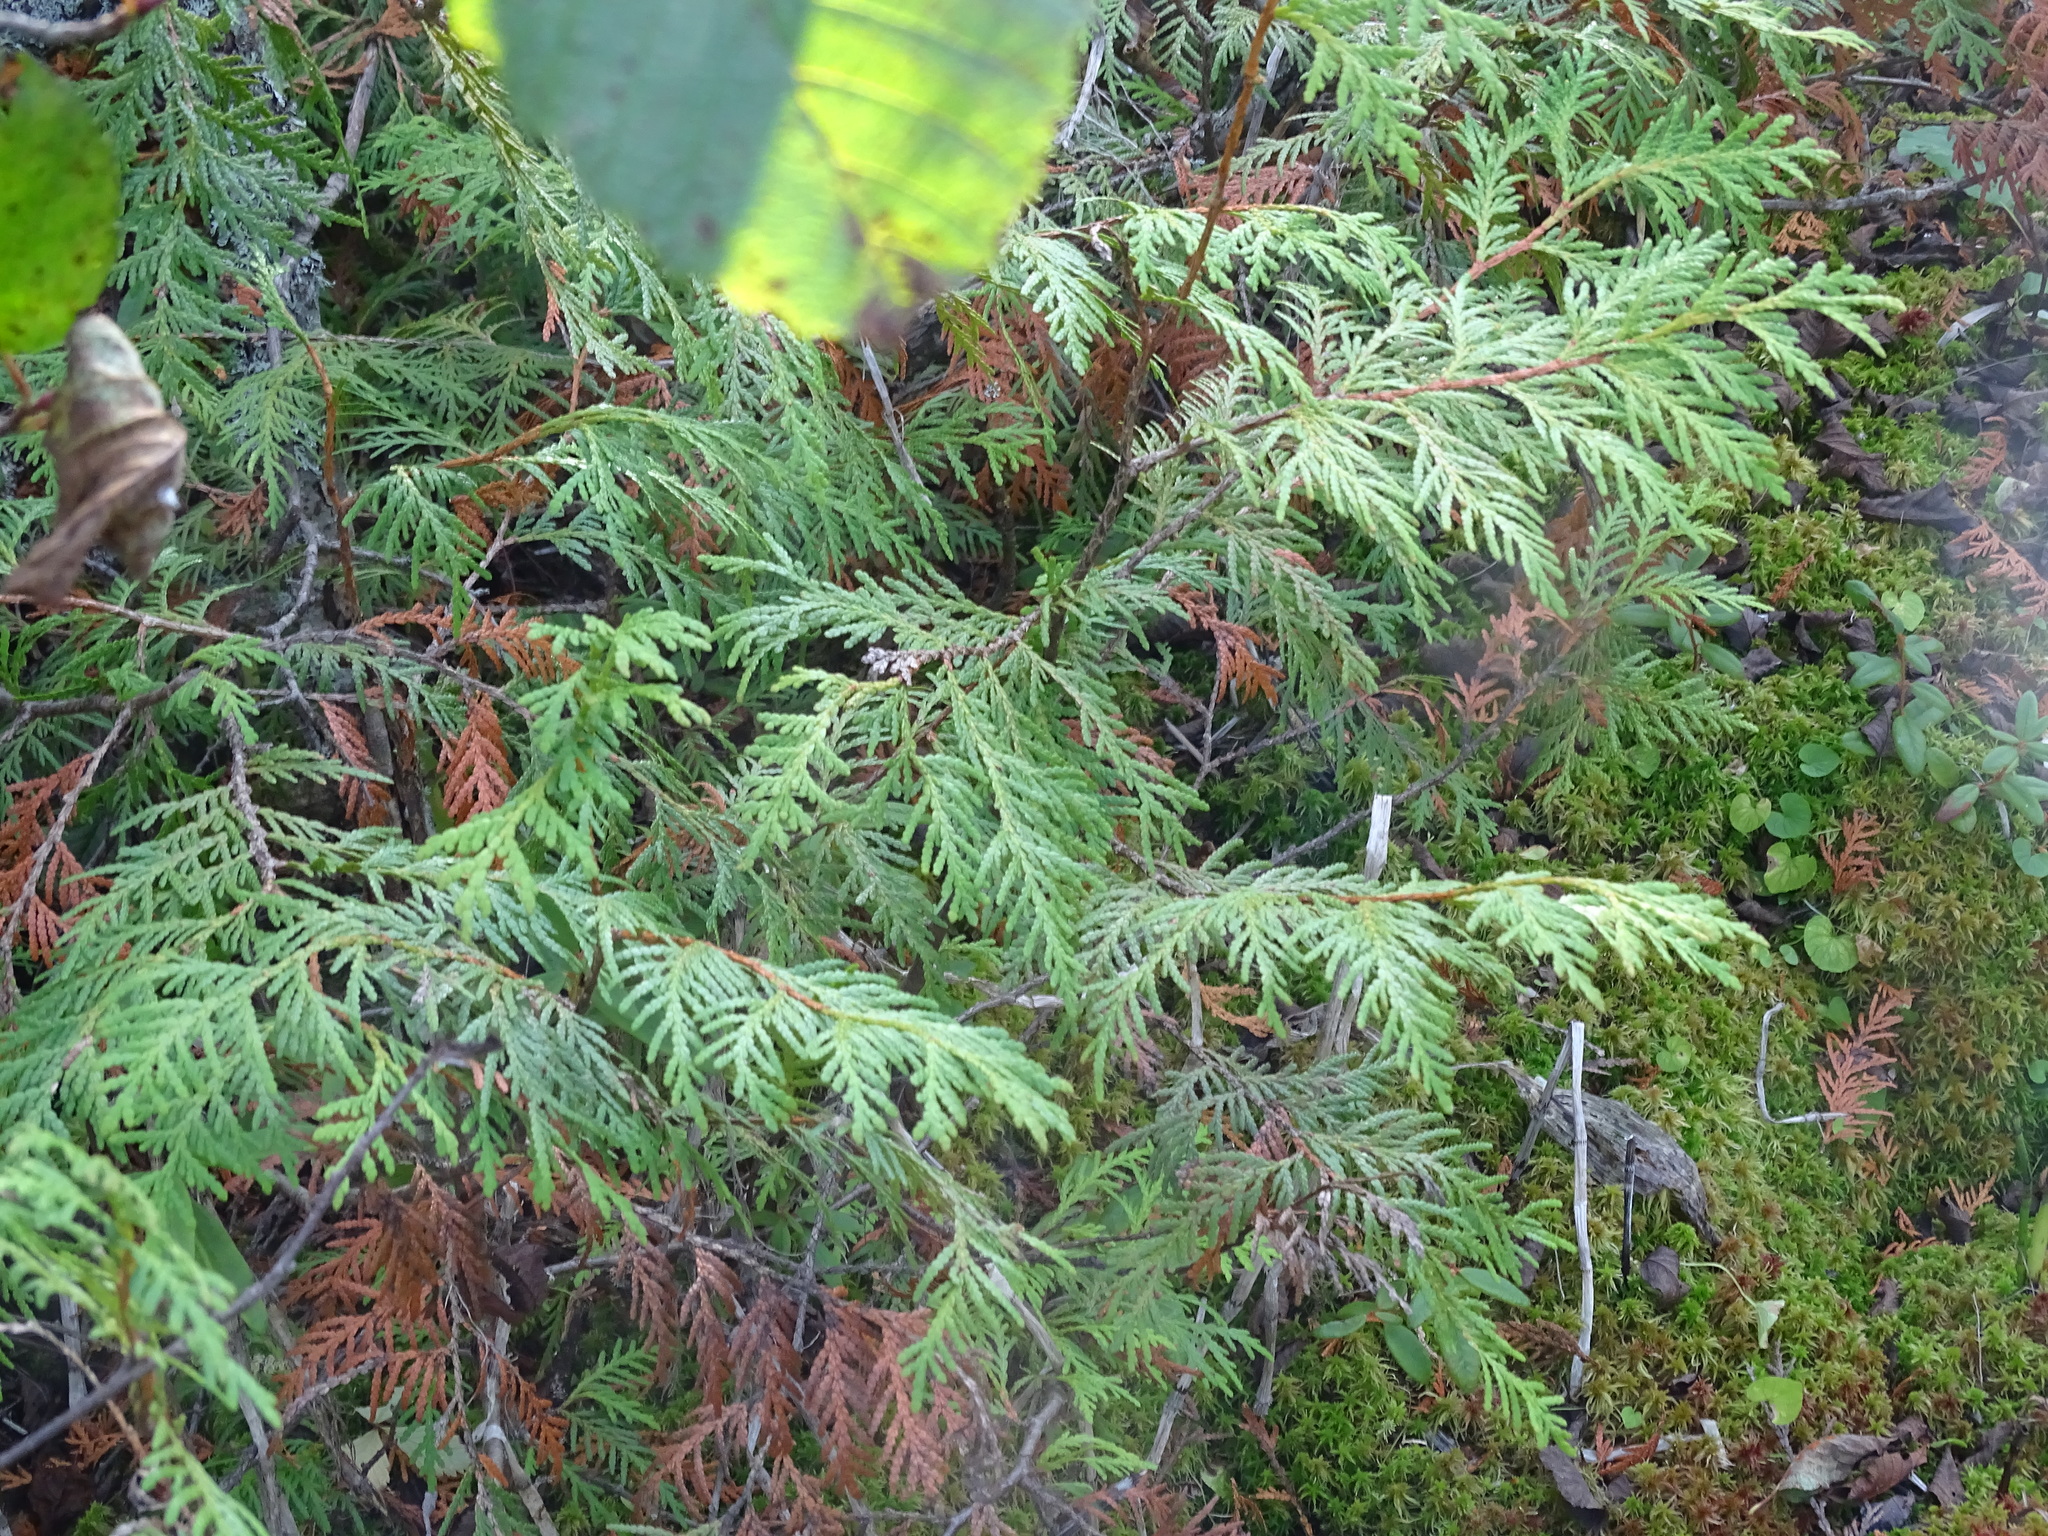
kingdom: Plantae
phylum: Tracheophyta
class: Pinopsida
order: Pinales
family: Cupressaceae
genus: Thuja
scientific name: Thuja occidentalis
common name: Northern white-cedar
